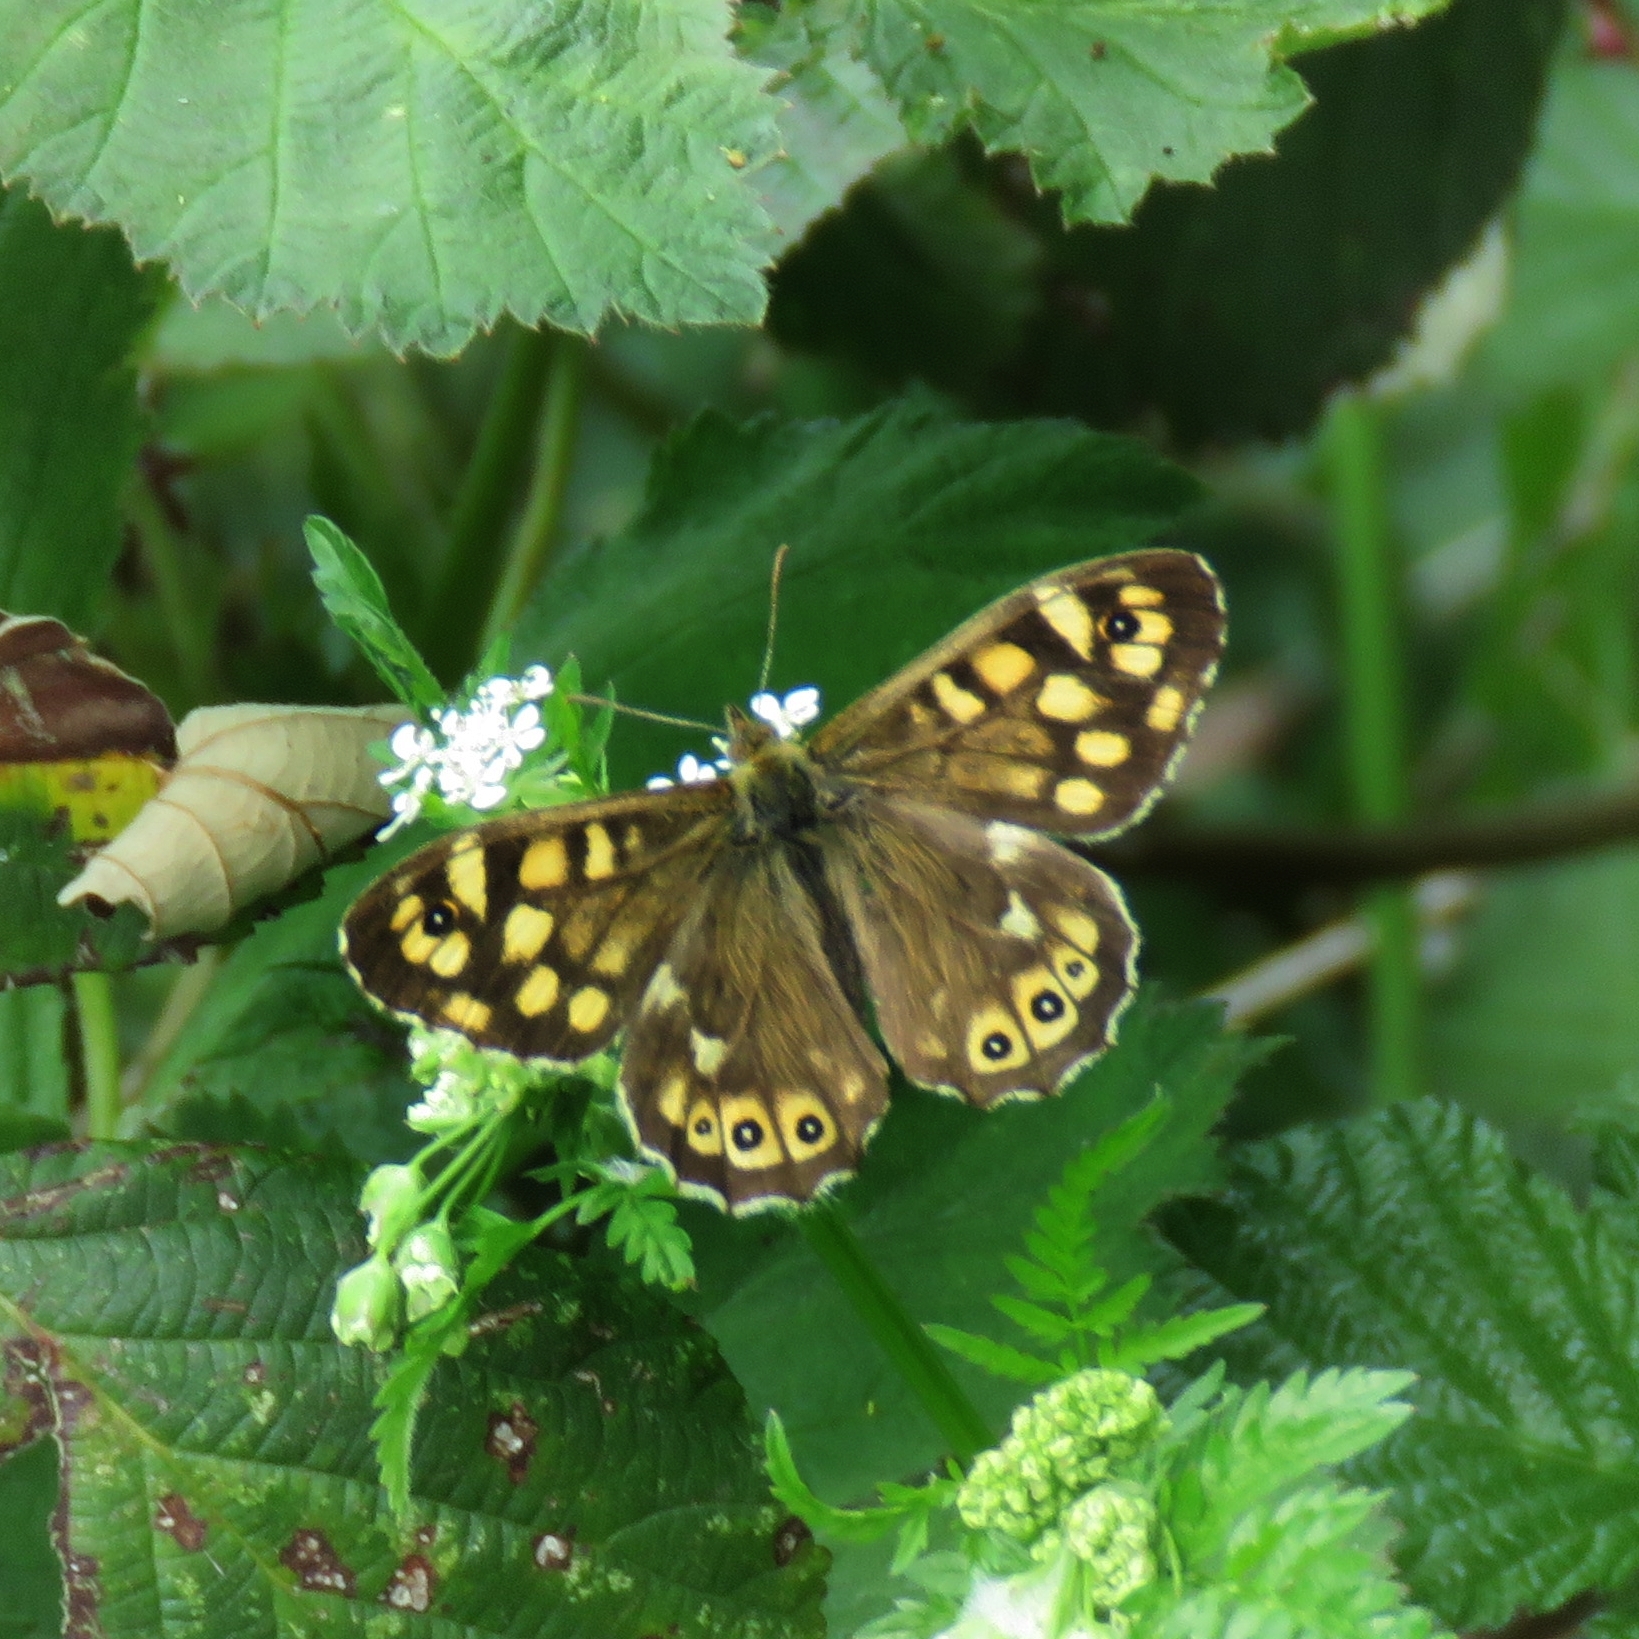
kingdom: Animalia
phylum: Arthropoda
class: Insecta
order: Lepidoptera
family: Nymphalidae
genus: Pararge
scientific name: Pararge aegeria
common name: Speckled wood
